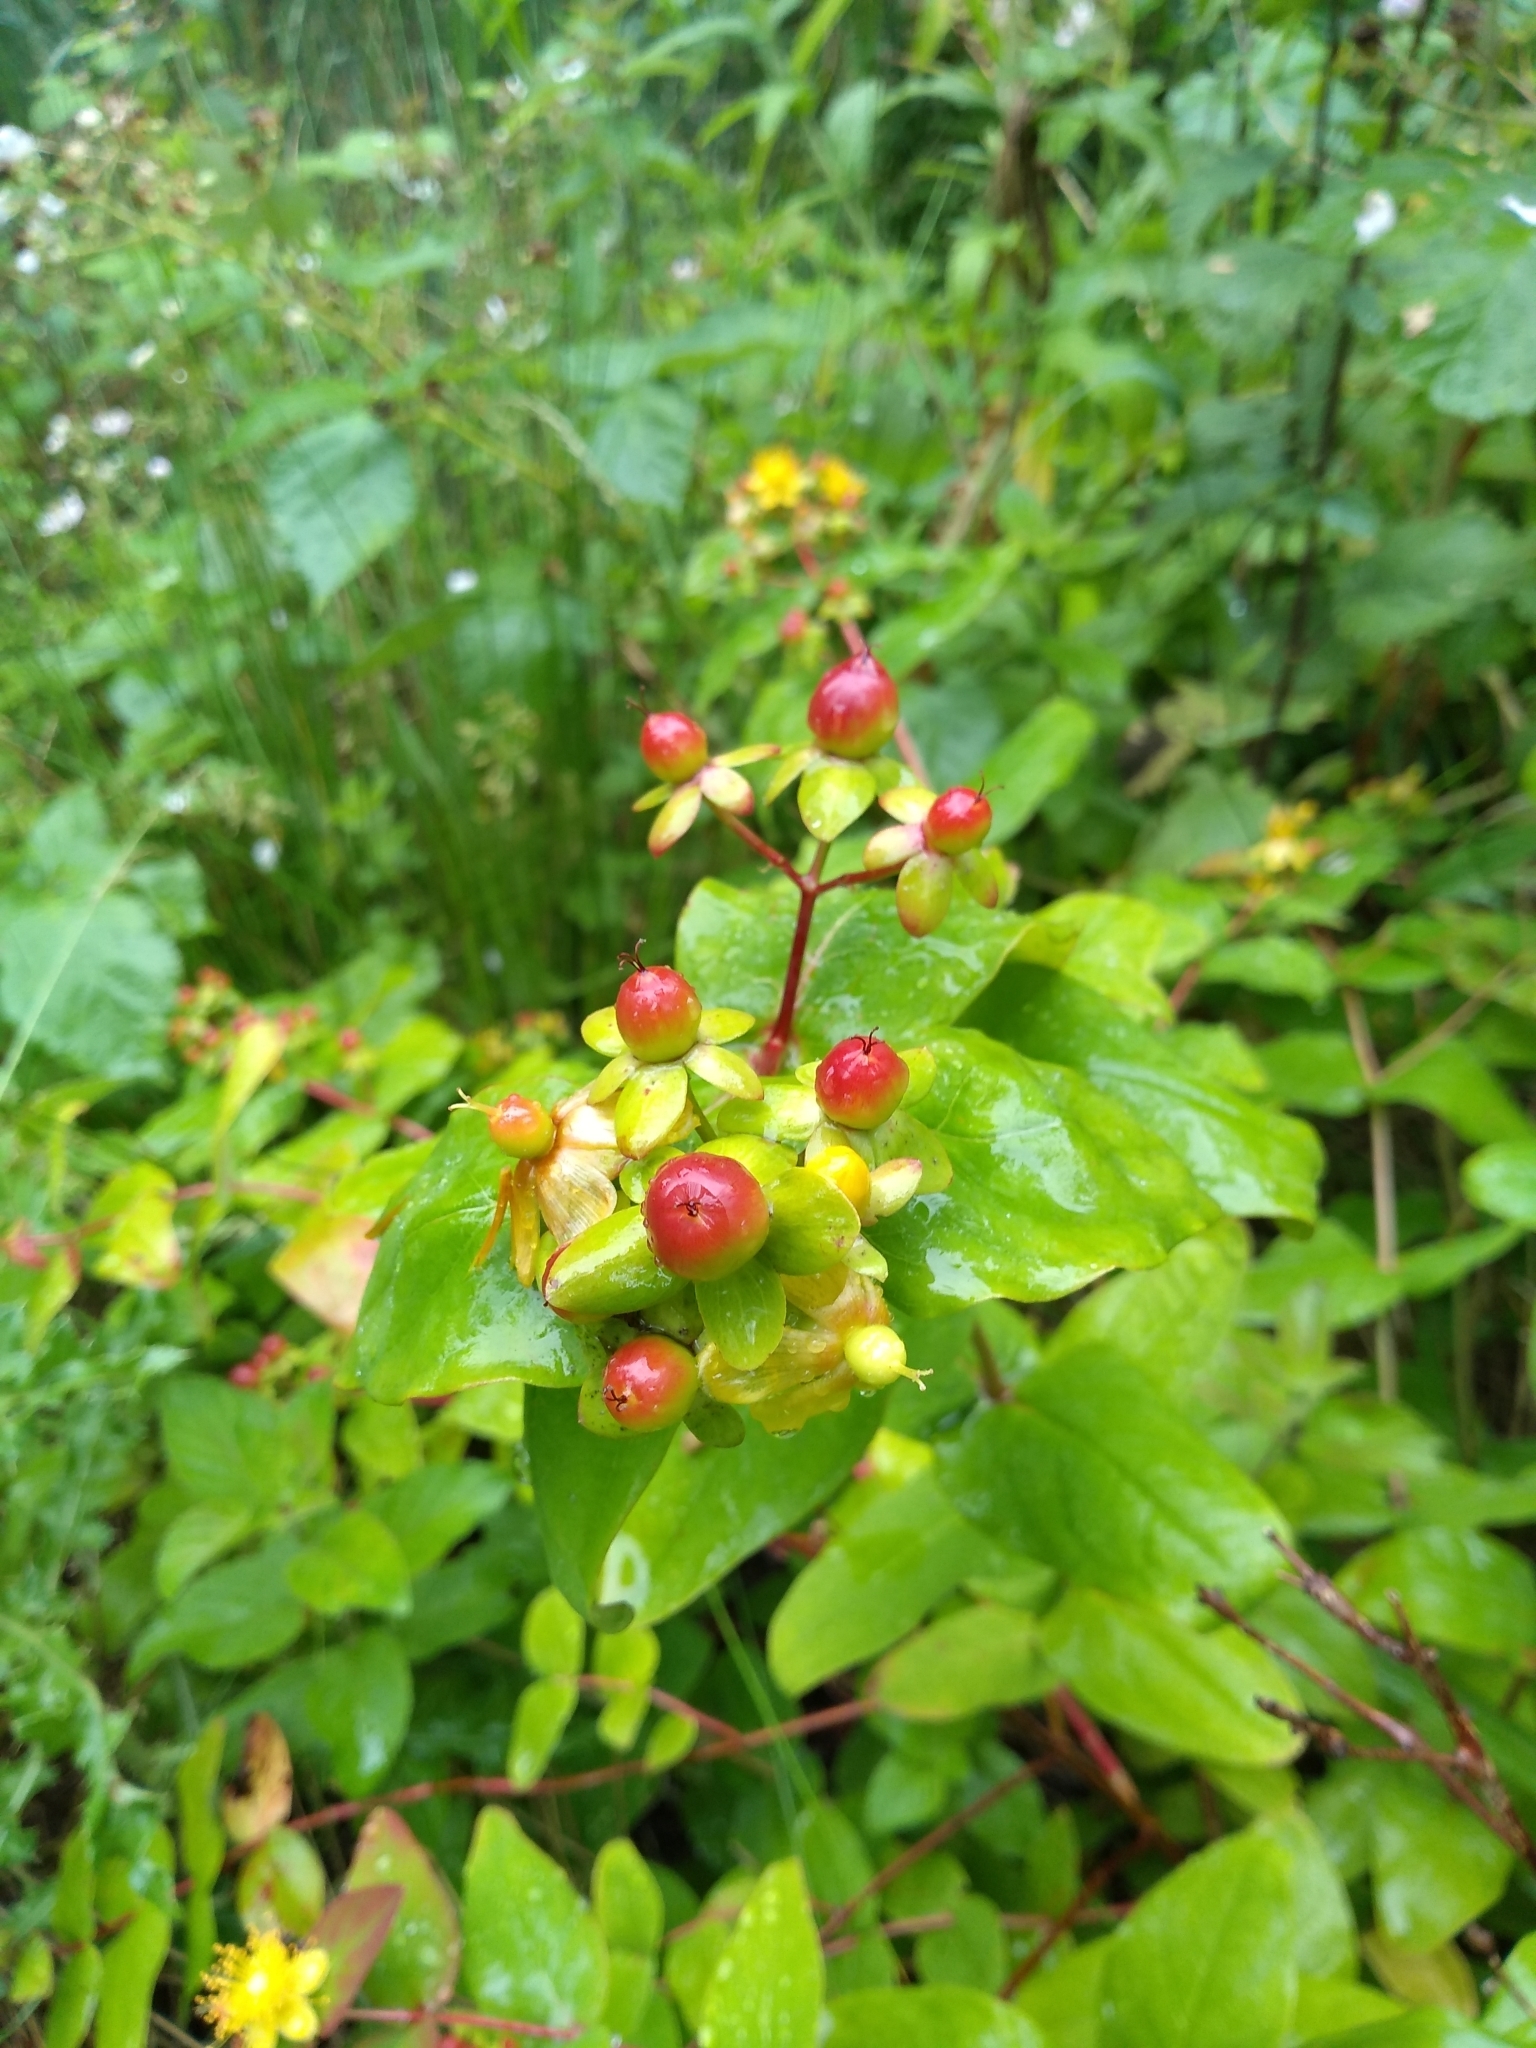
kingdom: Plantae
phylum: Tracheophyta
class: Magnoliopsida
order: Malpighiales
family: Hypericaceae
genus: Hypericum
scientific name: Hypericum androsaemum
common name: Sweet-amber
